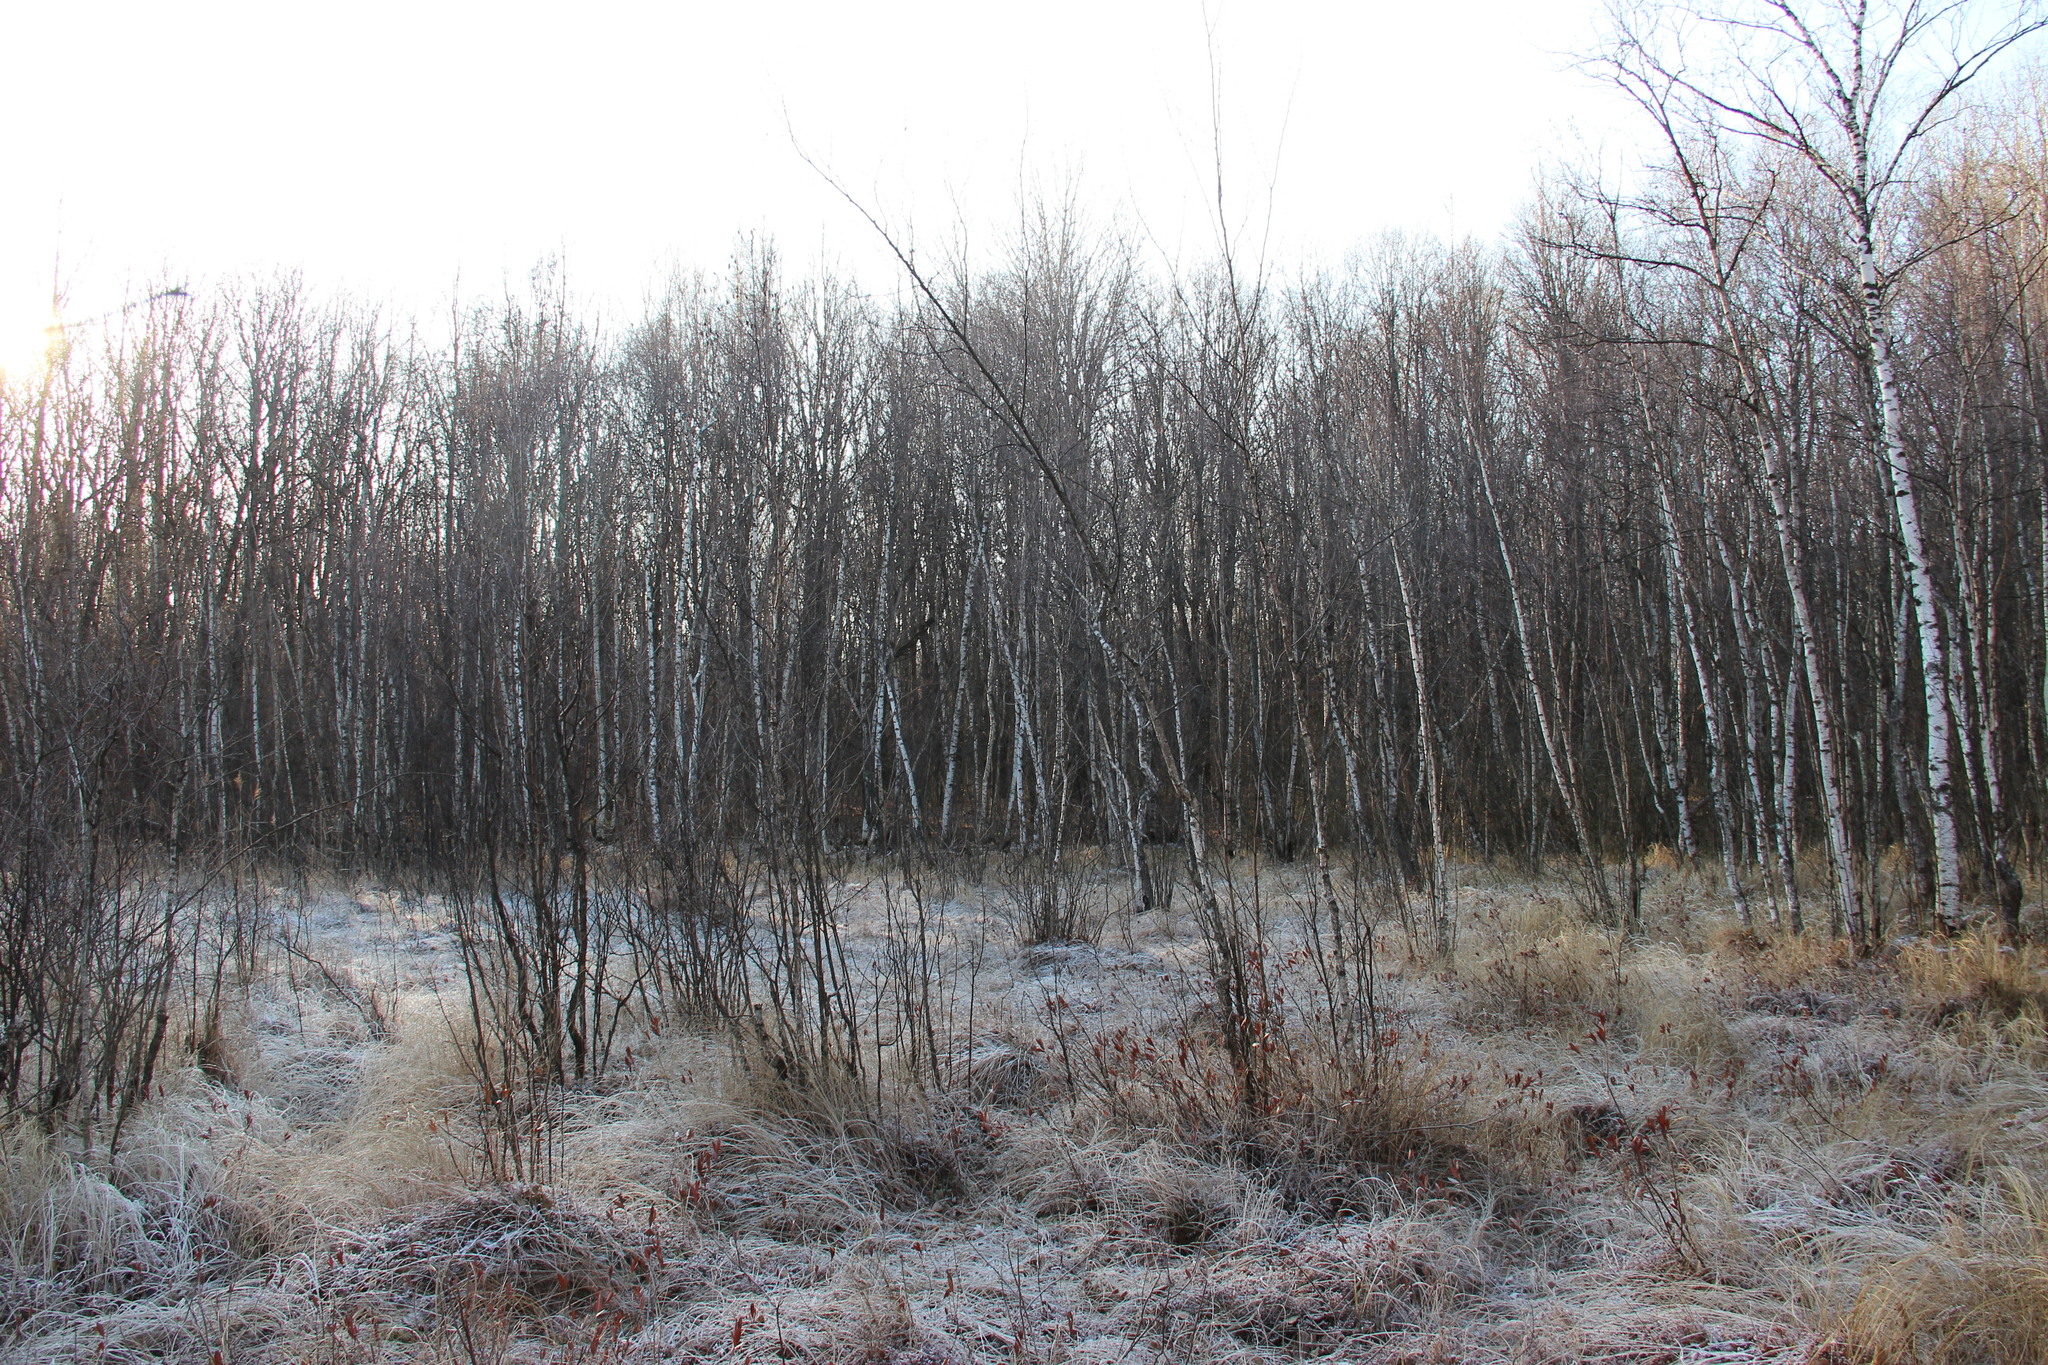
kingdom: Plantae
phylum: Tracheophyta
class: Magnoliopsida
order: Fagales
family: Betulaceae
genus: Betula
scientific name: Betula pubescens
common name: Downy birch
